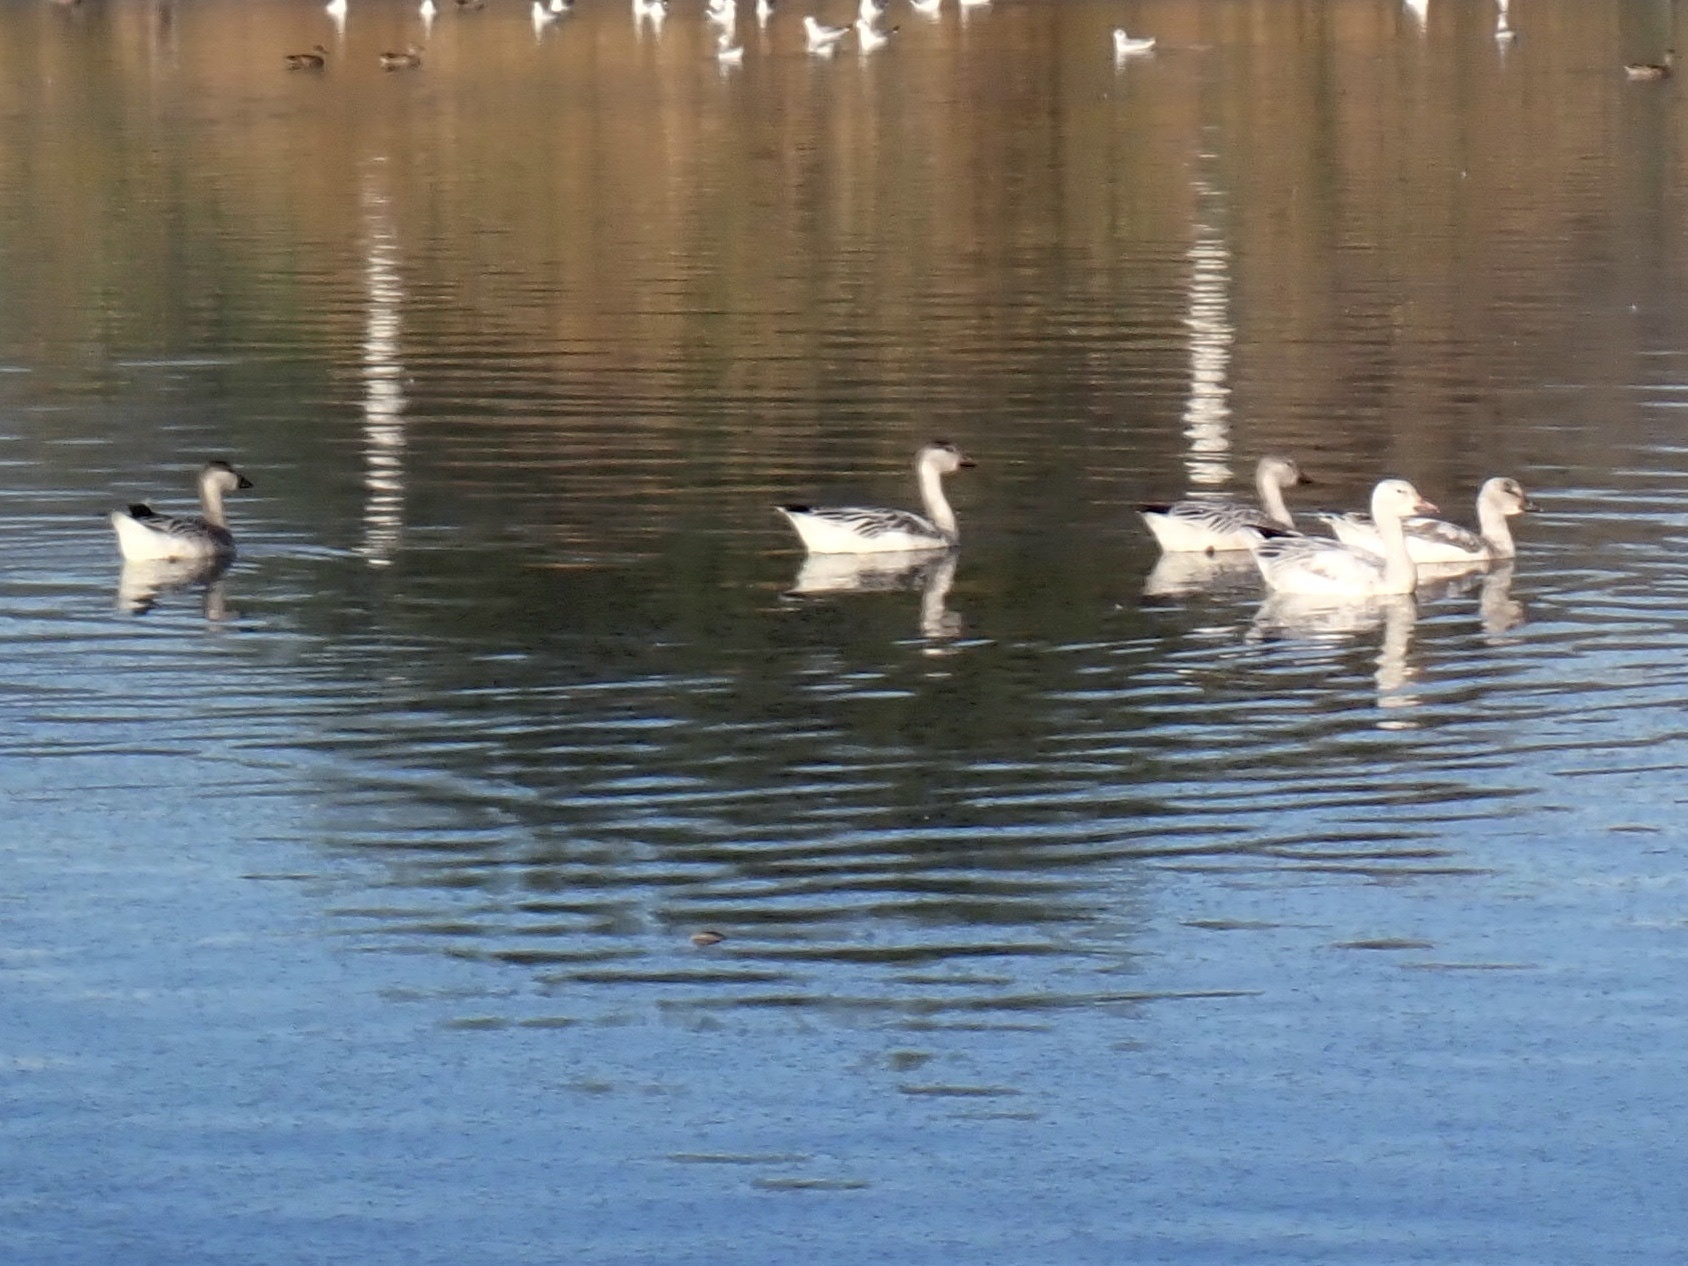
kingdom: Animalia
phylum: Chordata
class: Aves
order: Anseriformes
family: Anatidae
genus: Anser
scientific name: Anser caerulescens
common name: Snow goose
